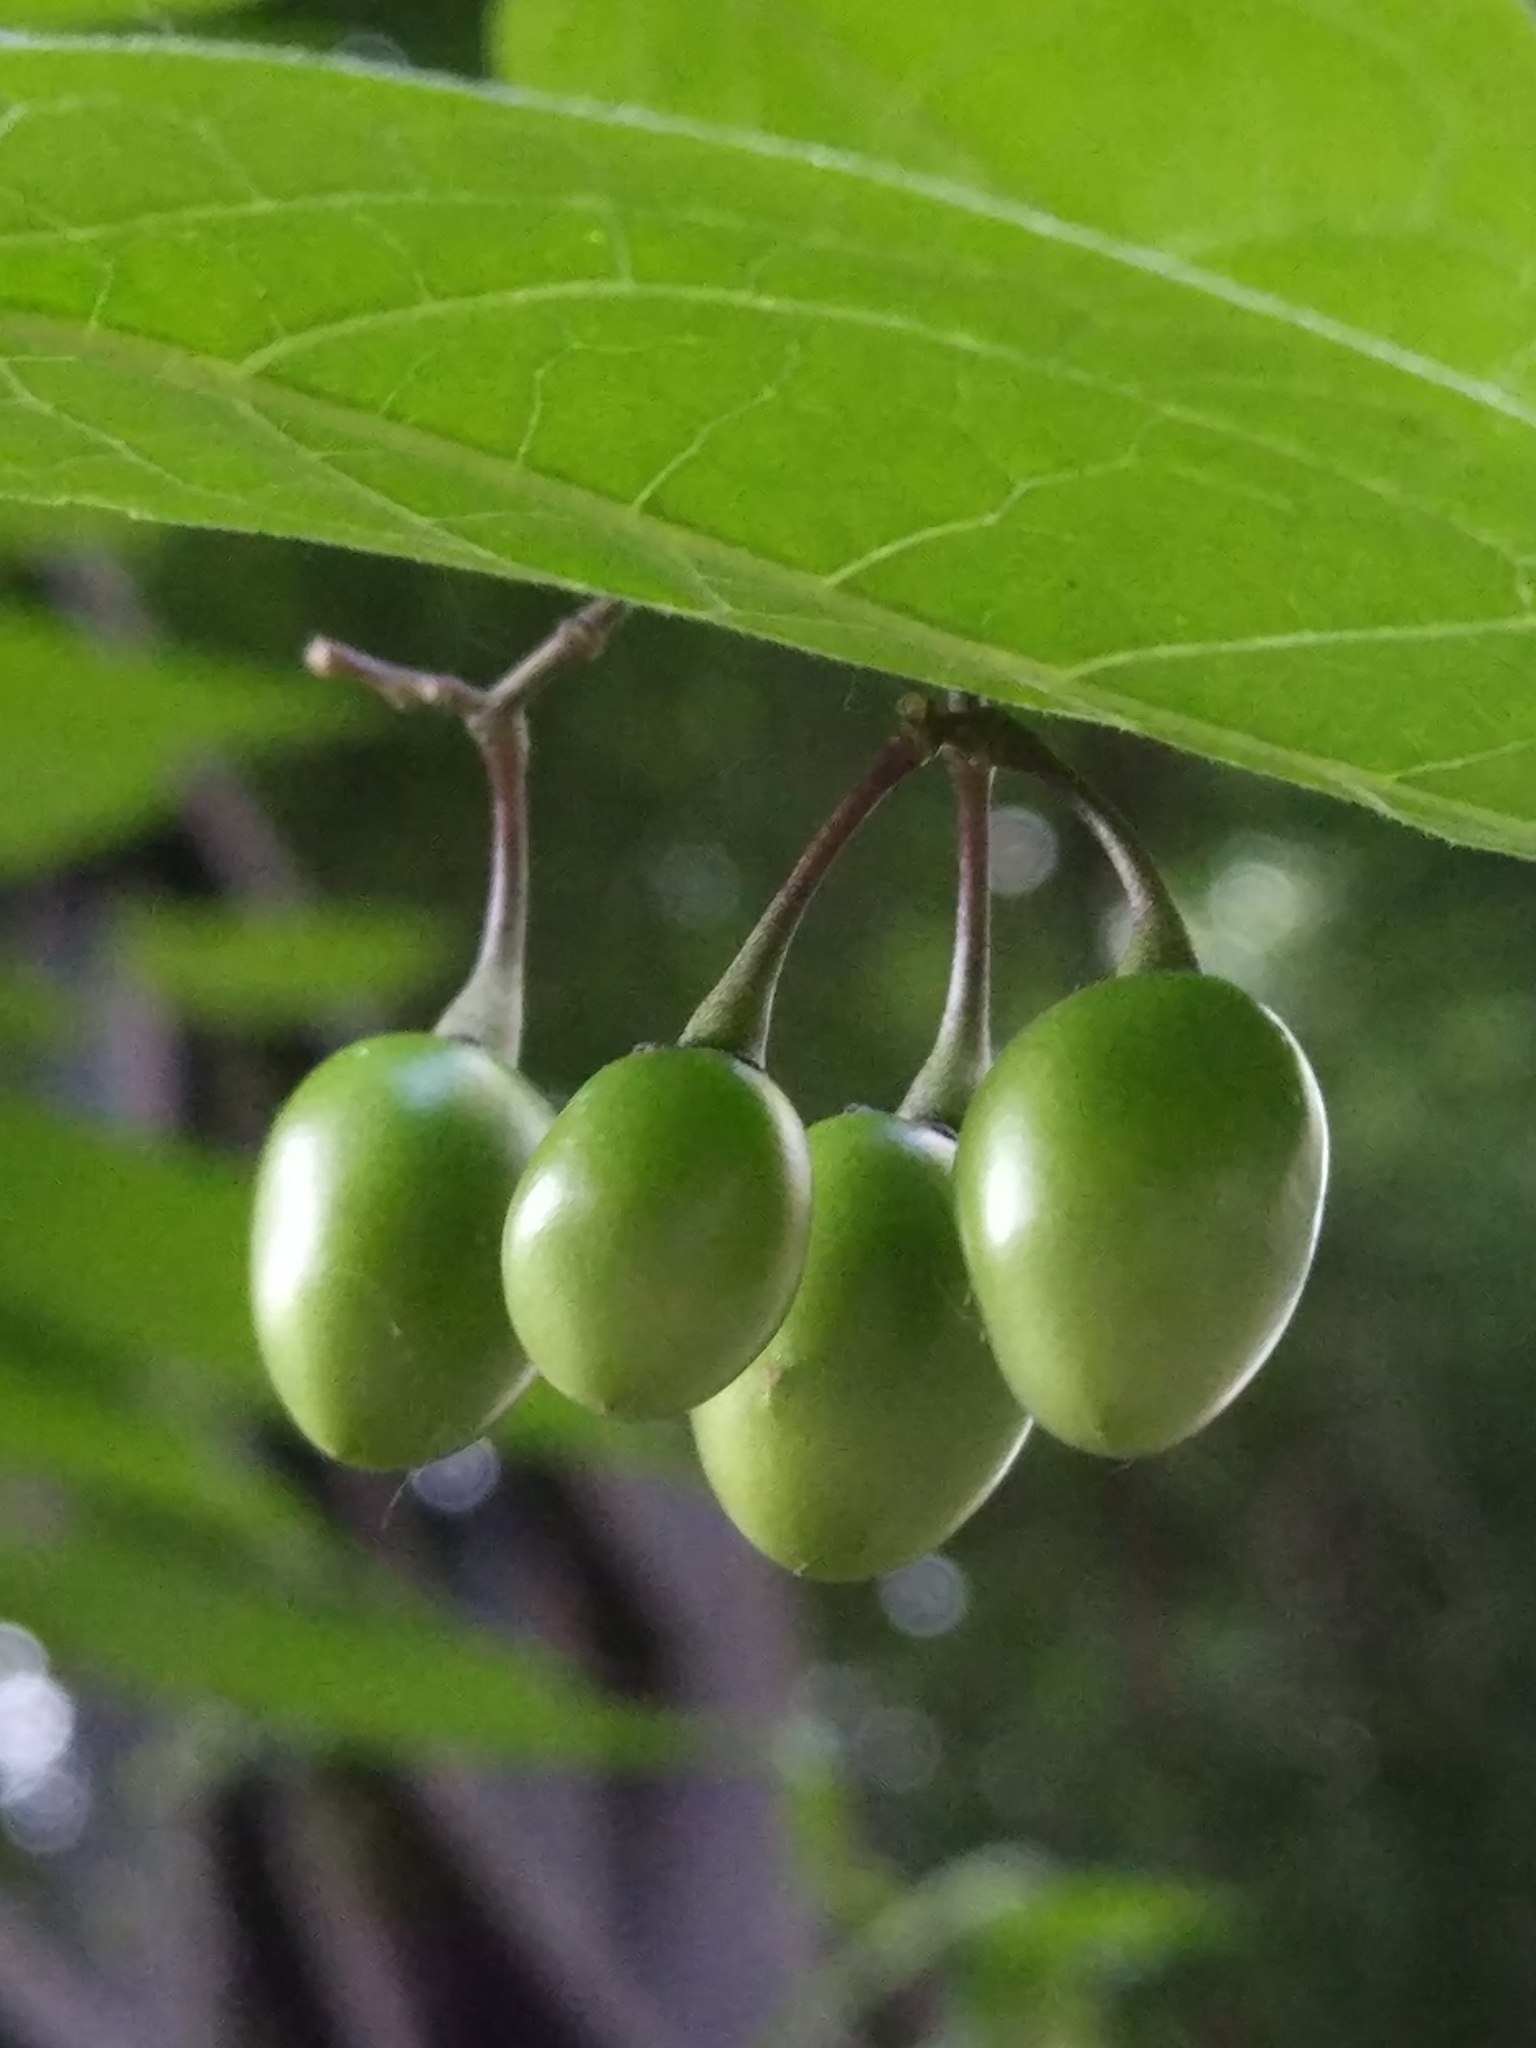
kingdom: Plantae
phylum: Tracheophyta
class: Magnoliopsida
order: Solanales
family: Solanaceae
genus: Solanum
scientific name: Solanum dulcamara
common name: Climbing nightshade
